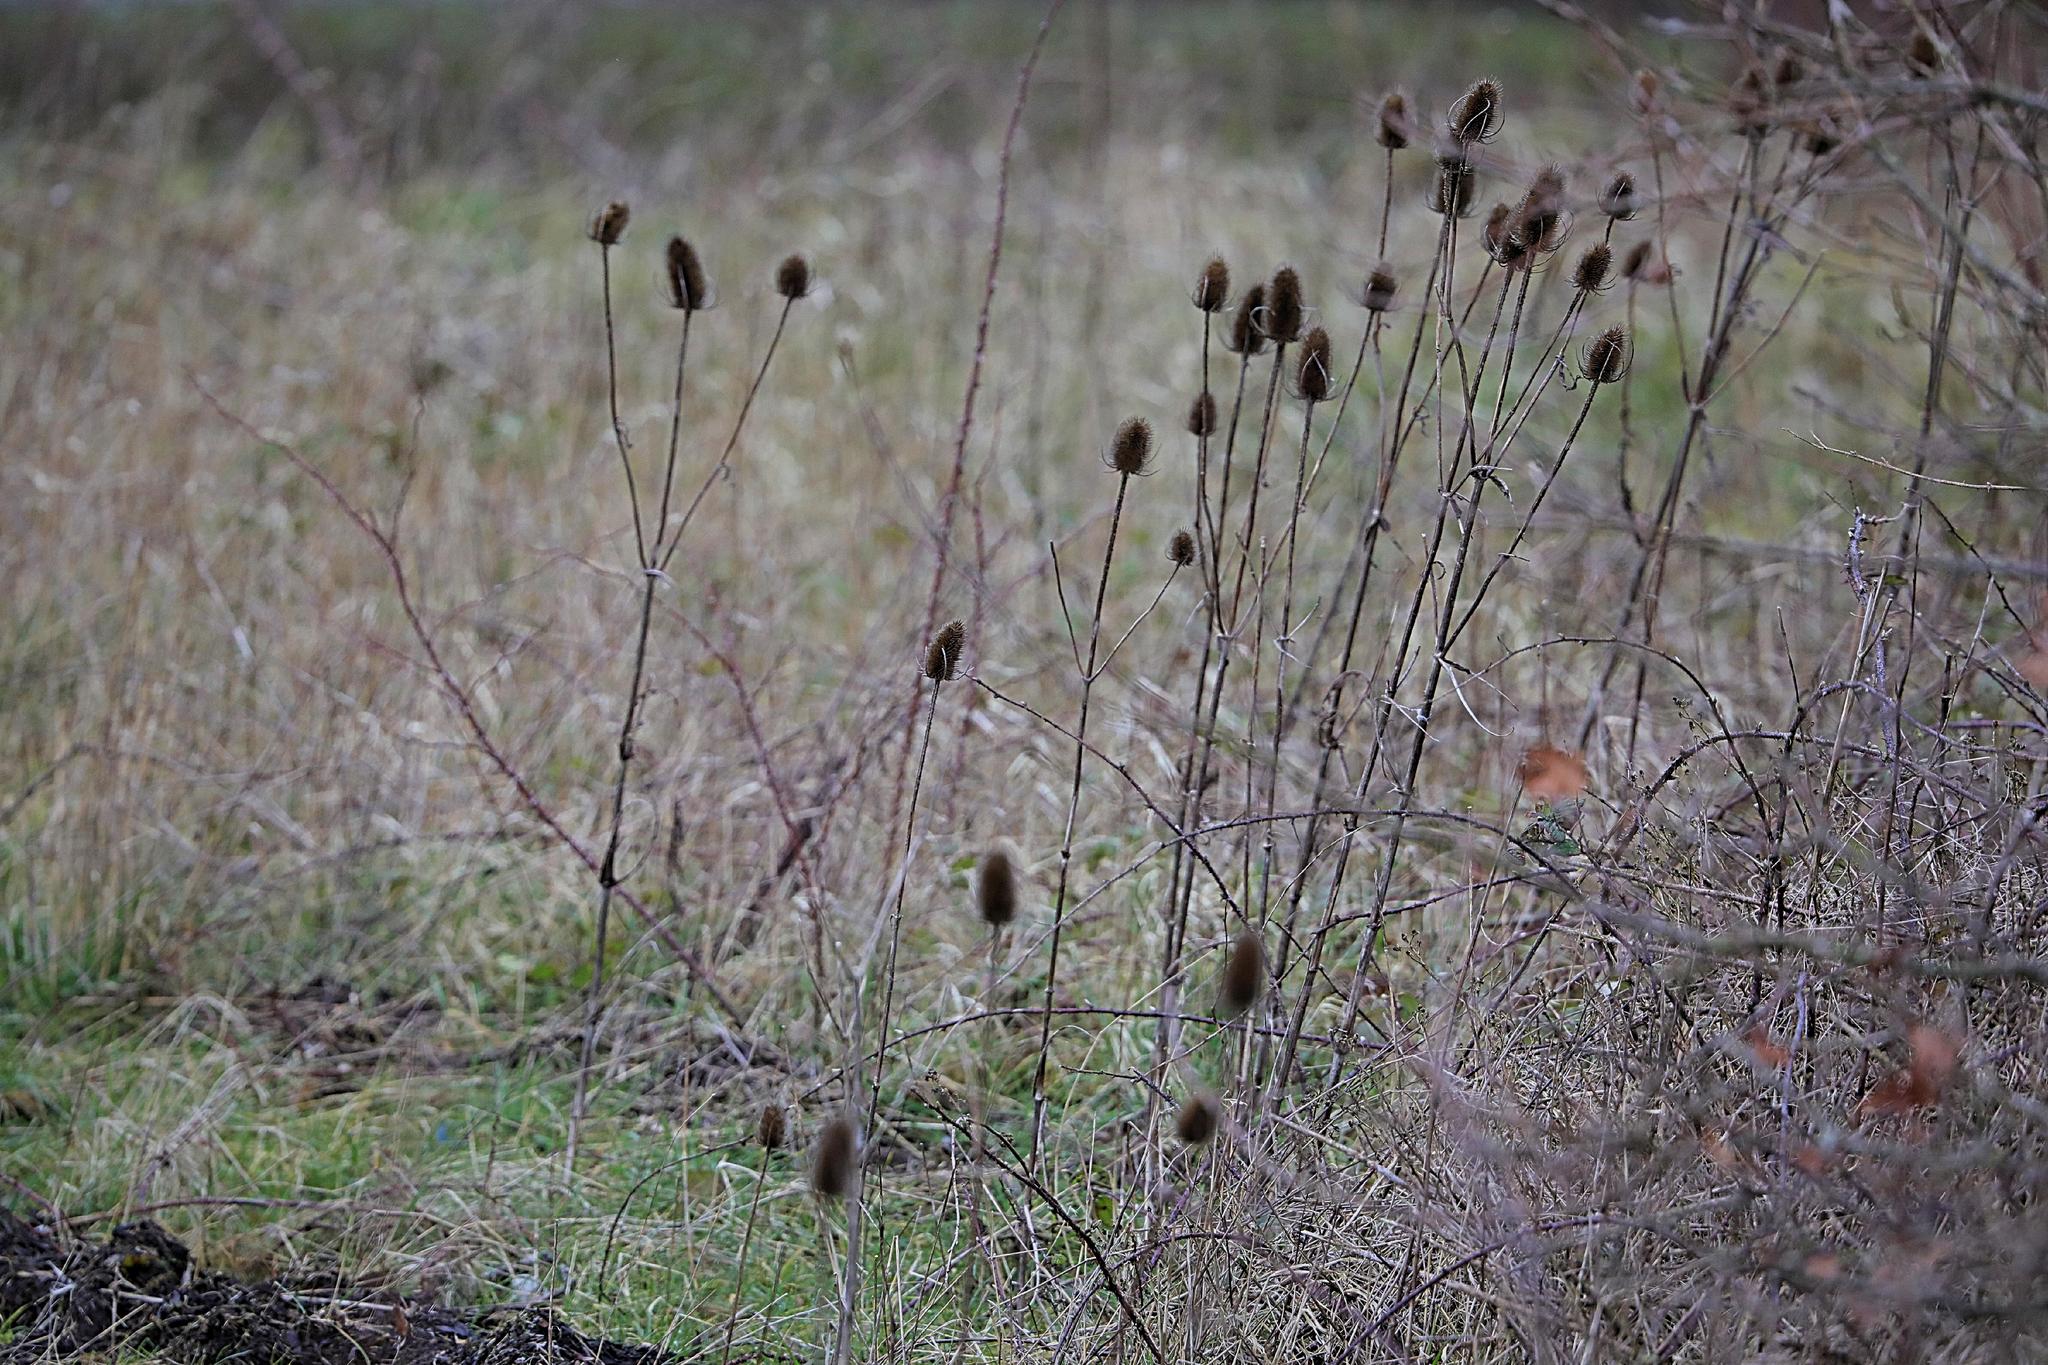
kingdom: Plantae
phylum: Tracheophyta
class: Magnoliopsida
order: Dipsacales
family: Caprifoliaceae
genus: Dipsacus
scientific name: Dipsacus fullonum
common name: Teasel
